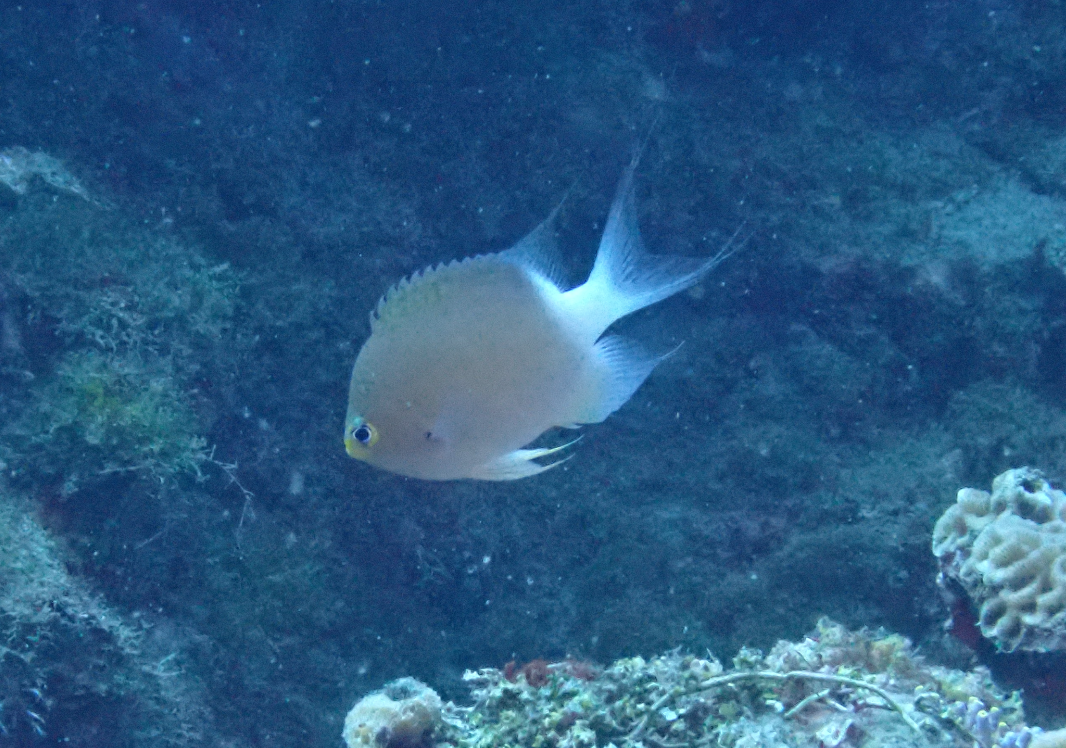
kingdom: Animalia
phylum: Chordata
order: Perciformes
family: Pomacentridae
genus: Chromis
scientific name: Chromis ovatiformes
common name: Ovate chromis
